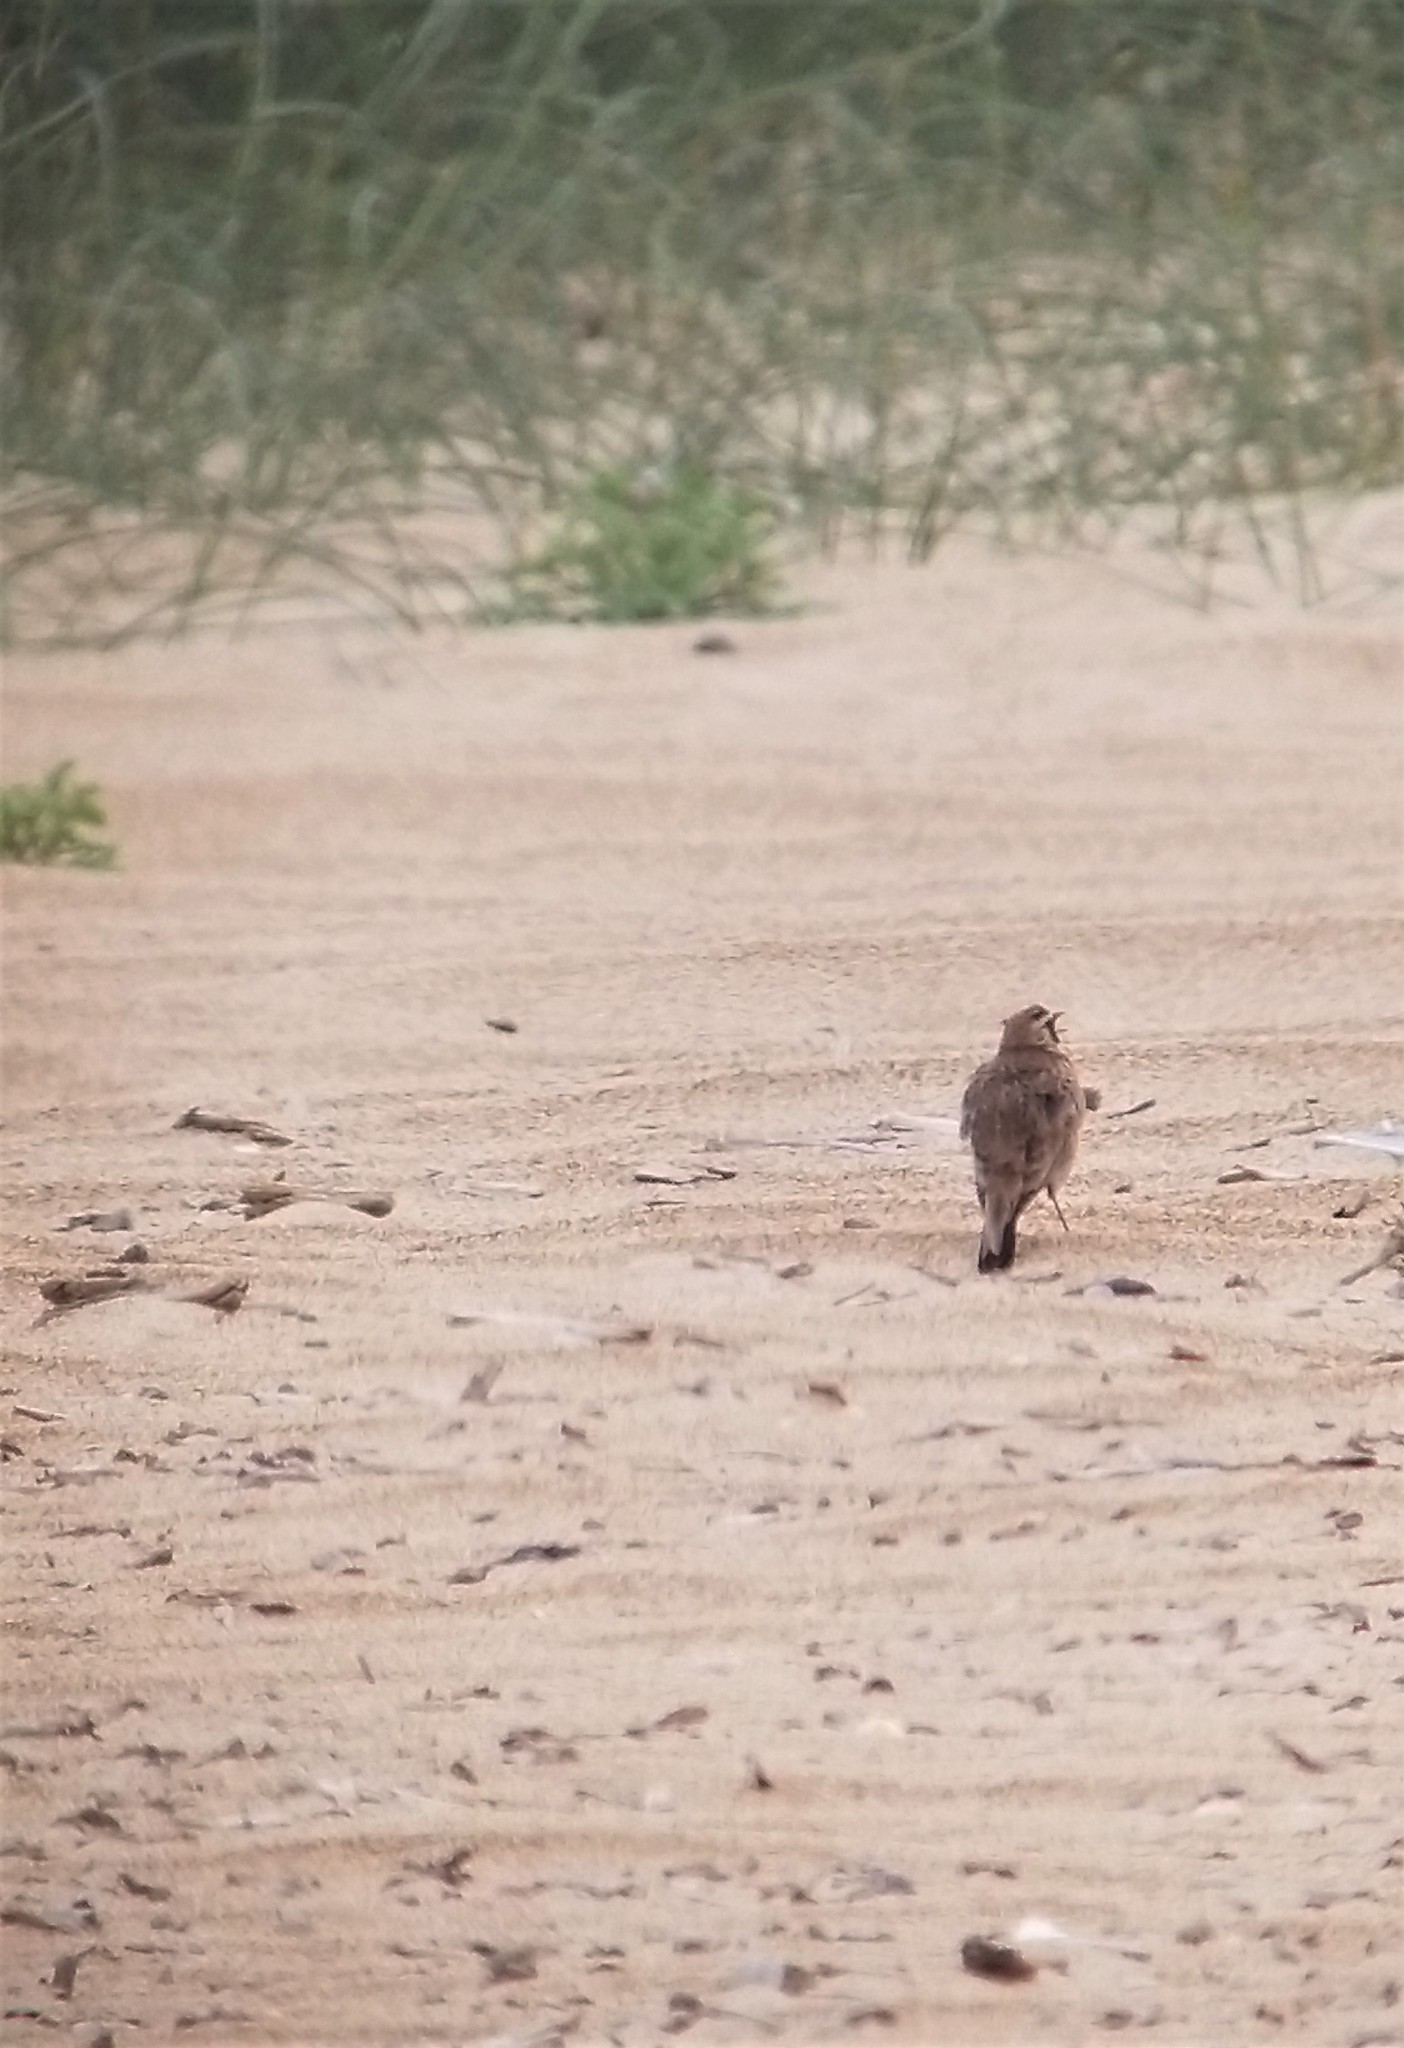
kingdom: Animalia
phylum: Chordata
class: Aves
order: Passeriformes
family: Alaudidae
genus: Eremophila
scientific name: Eremophila alpestris
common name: Horned lark
